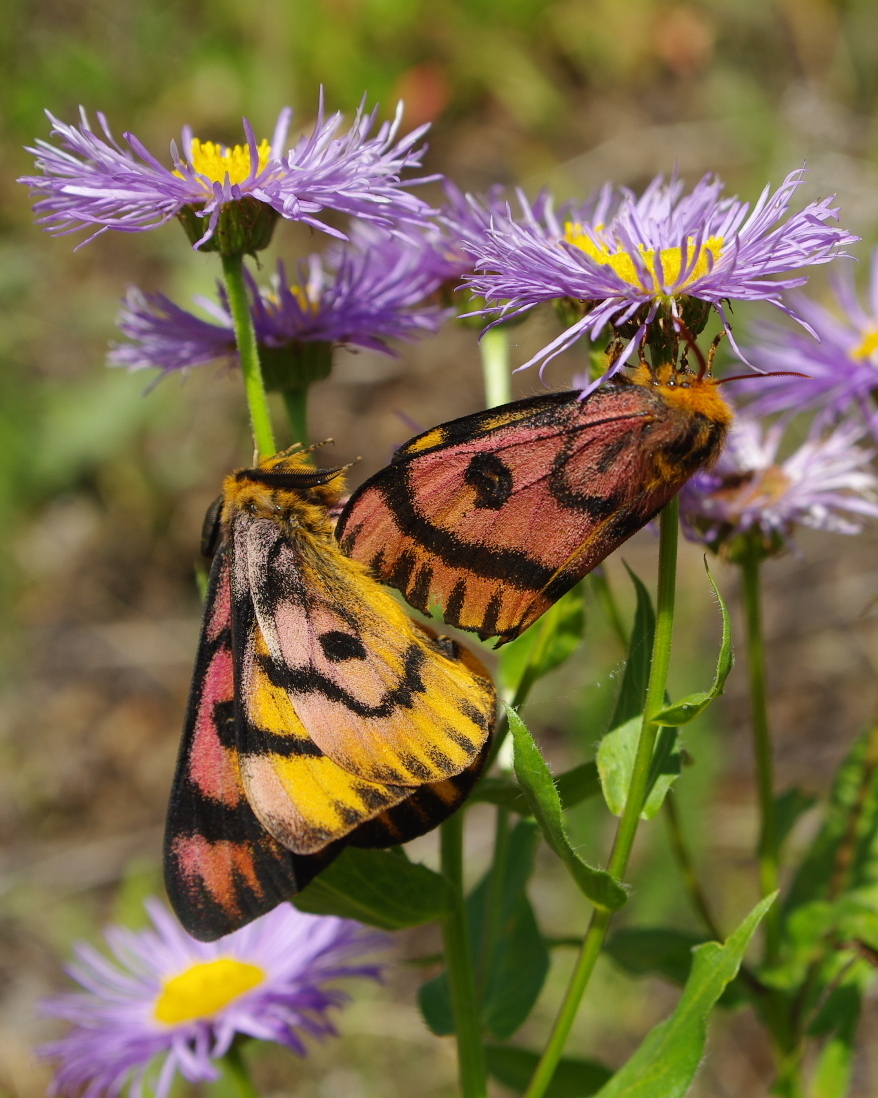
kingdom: Animalia
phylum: Arthropoda
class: Insecta
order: Lepidoptera
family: Saturniidae
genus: Hemileuca
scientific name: Hemileuca eglanterina
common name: Western sheepmoth
